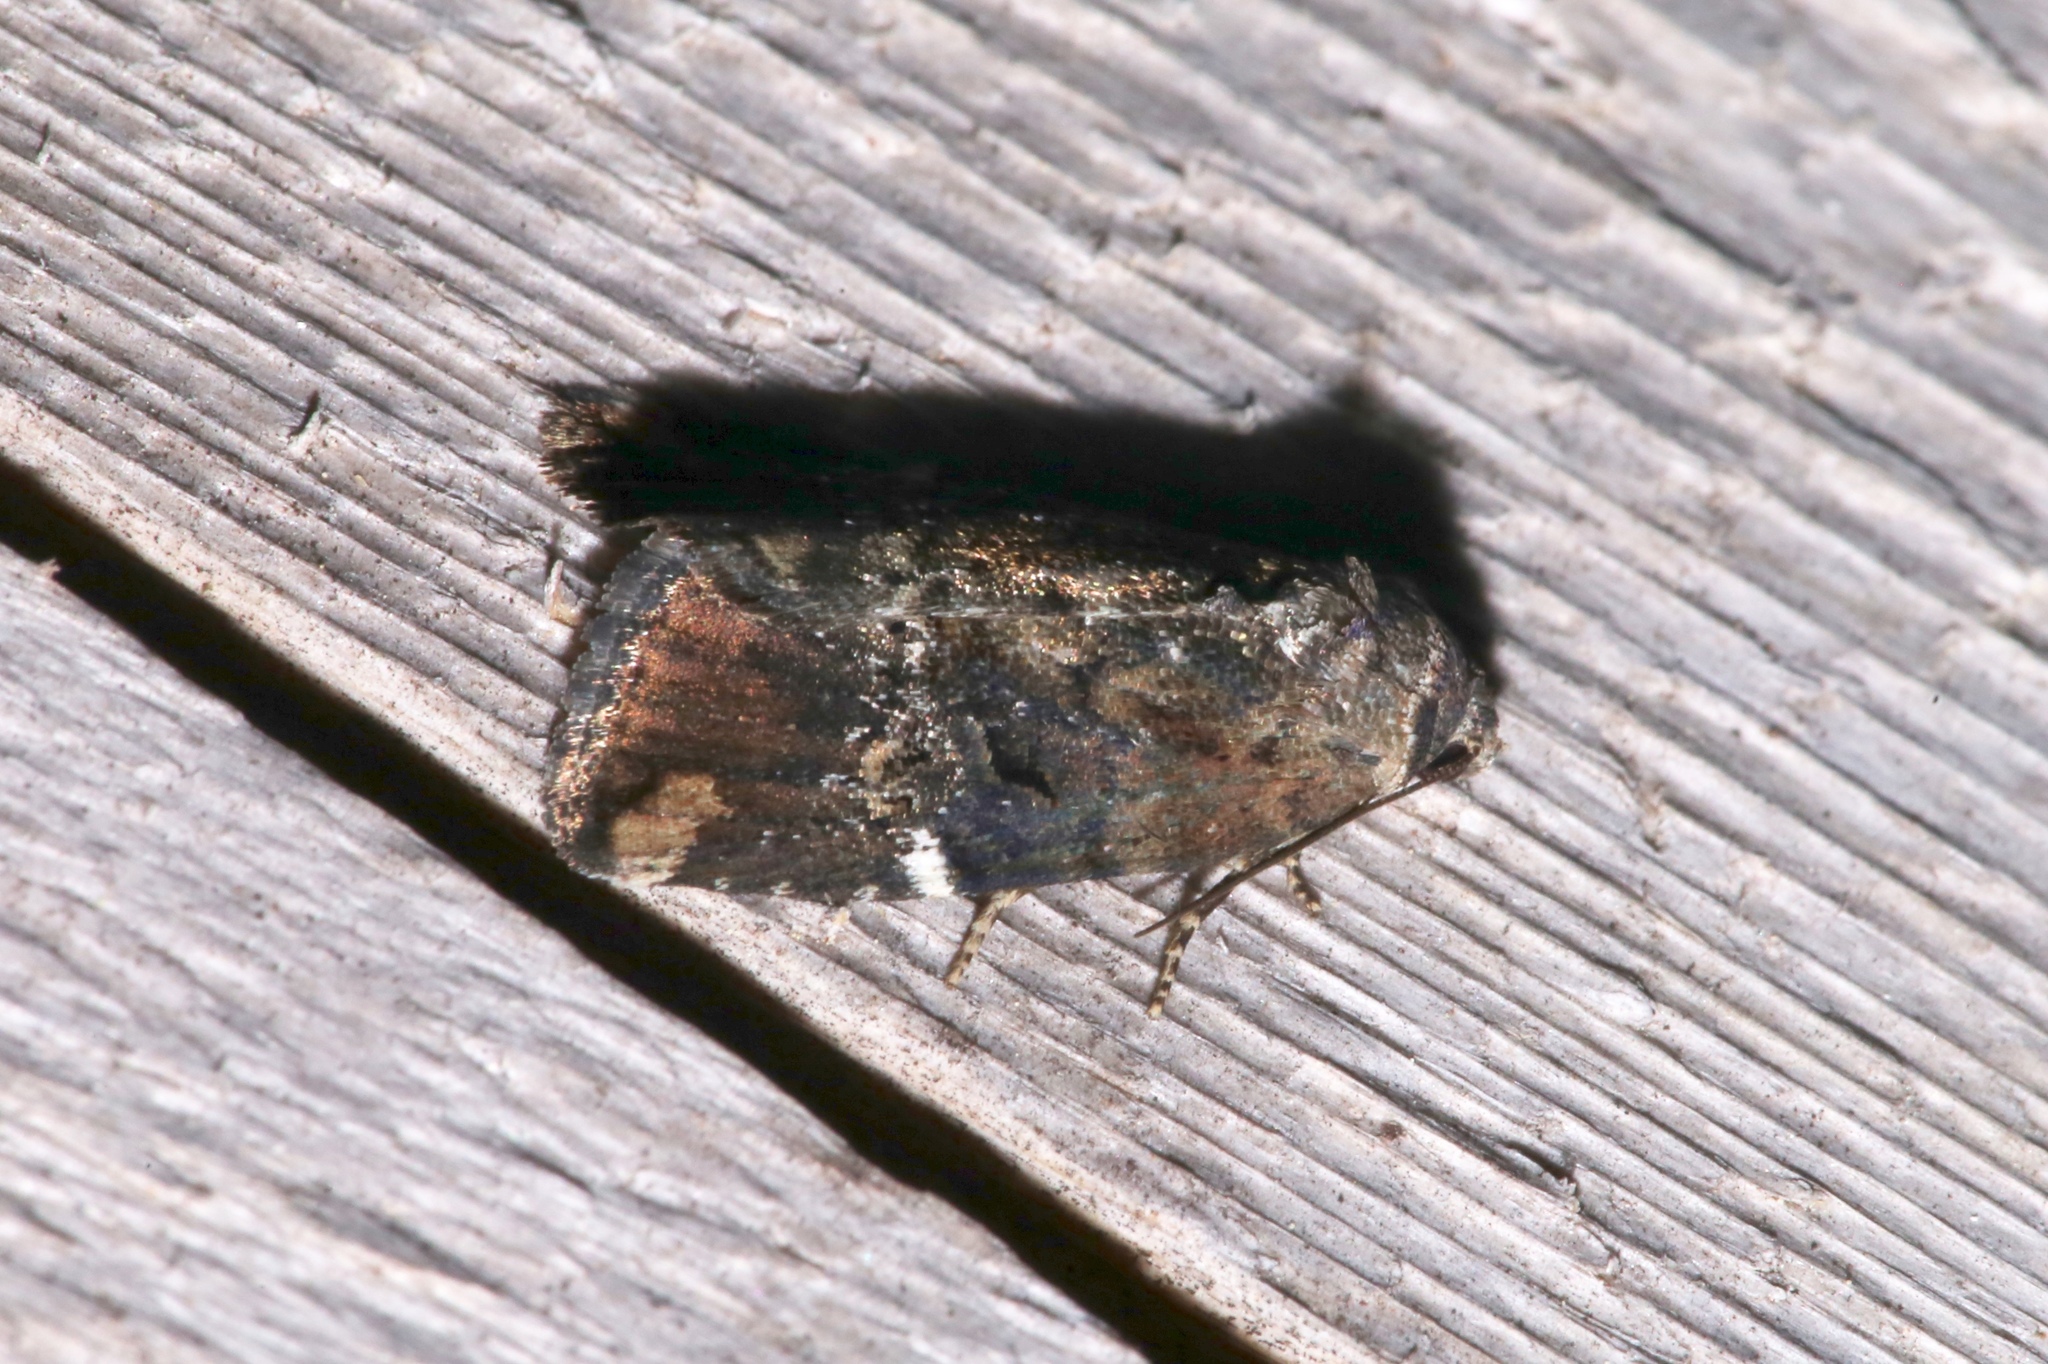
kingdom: Animalia
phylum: Arthropoda
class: Insecta
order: Lepidoptera
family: Noctuidae
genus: Elaphria
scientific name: Elaphria versicolor
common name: Fir harlequin
